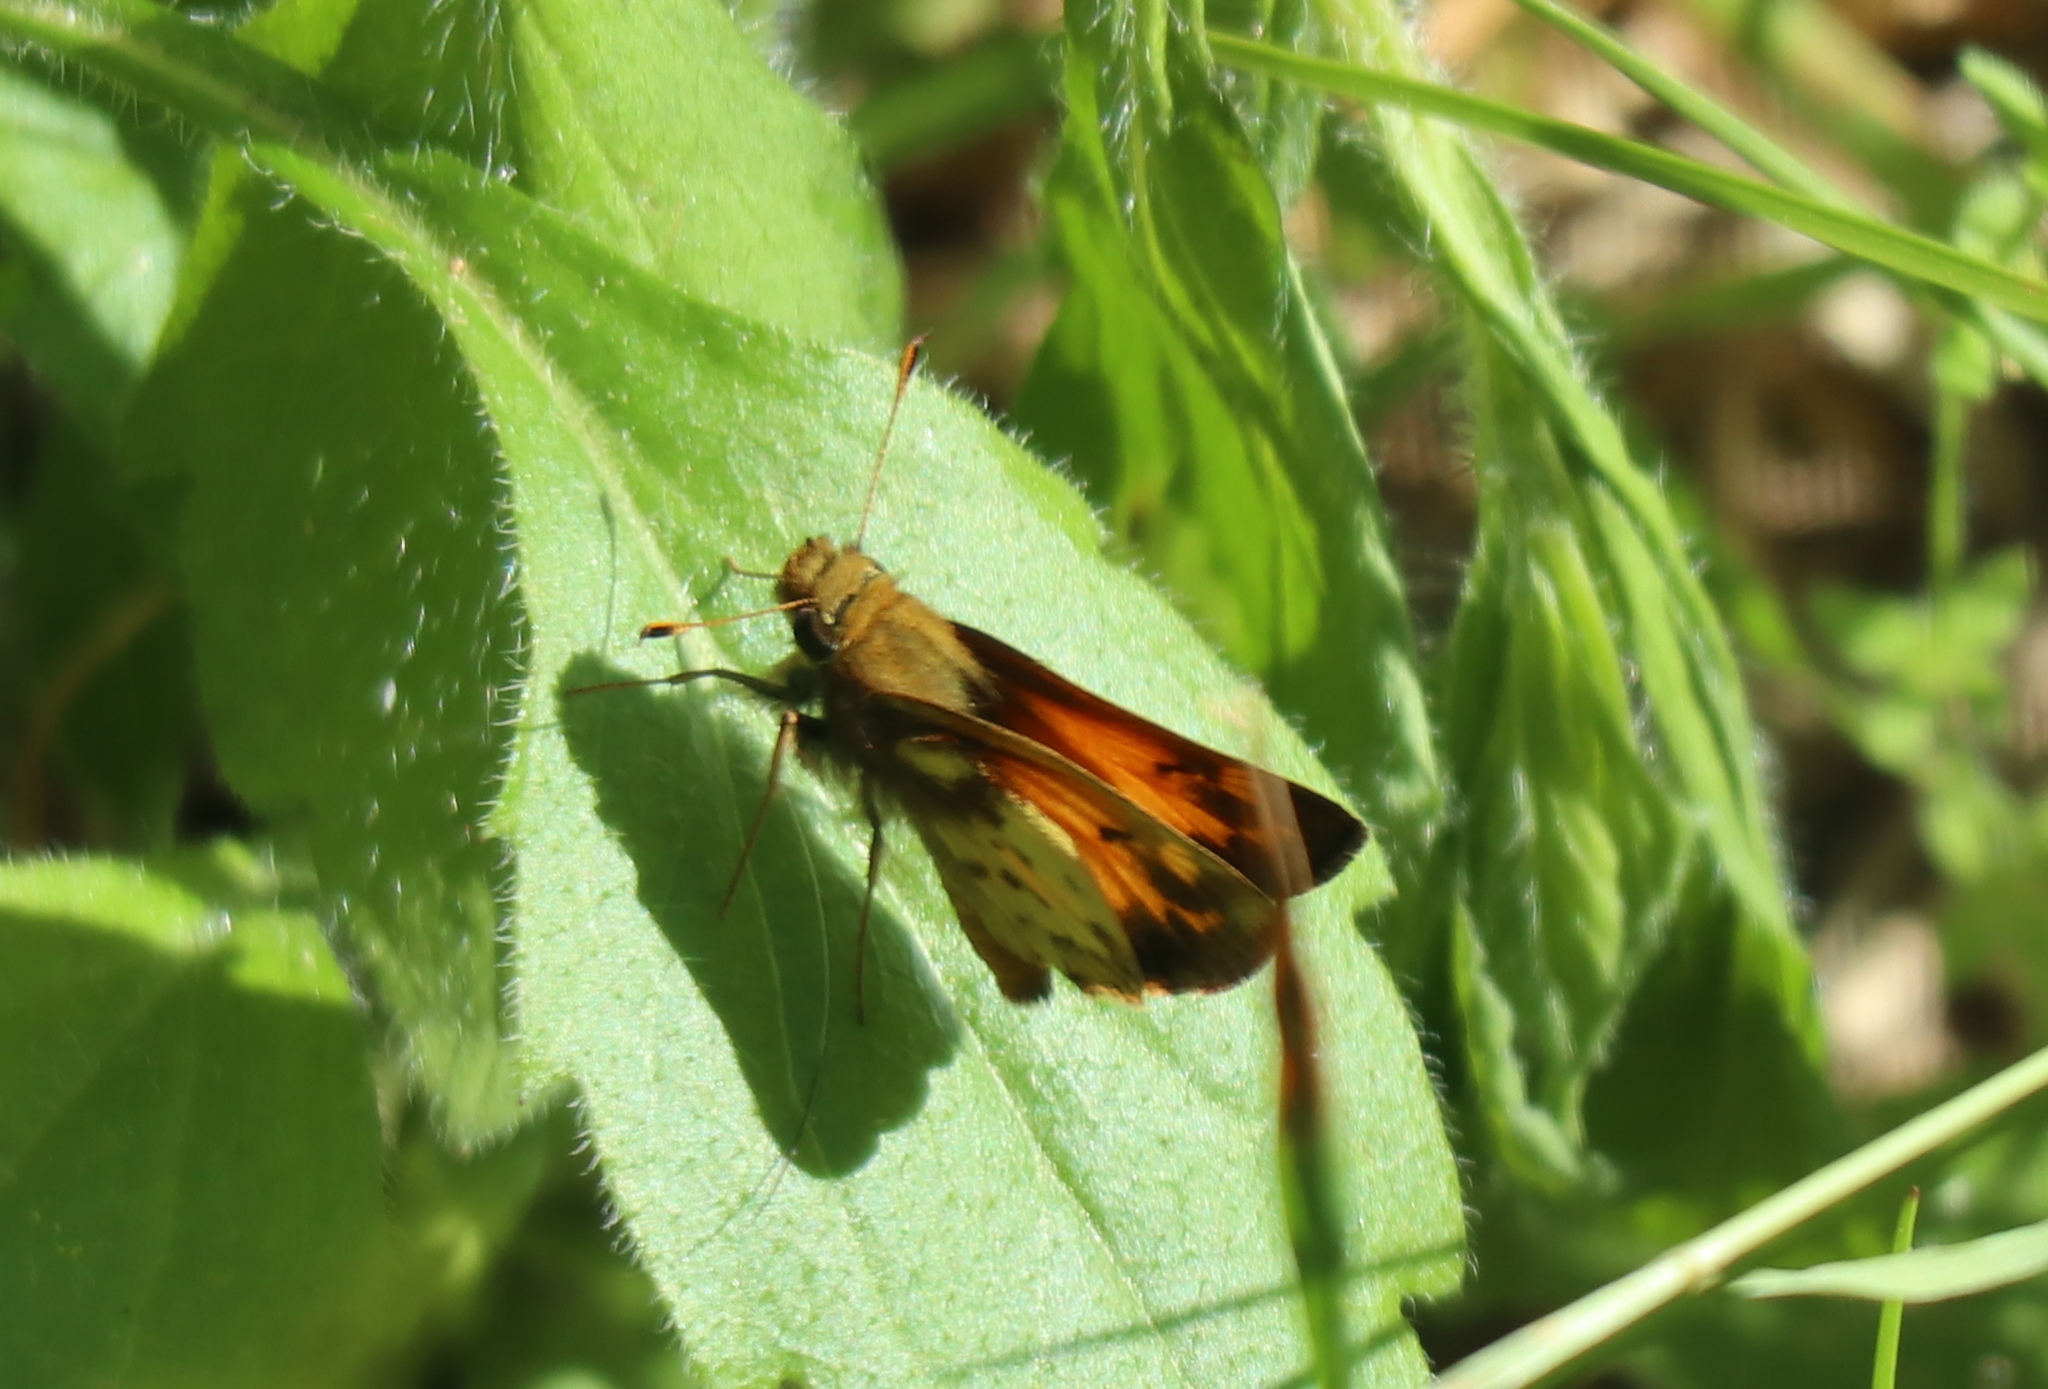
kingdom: Animalia
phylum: Arthropoda
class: Insecta
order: Lepidoptera
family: Hesperiidae
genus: Lon
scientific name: Lon zabulon
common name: Zabulon skipper
